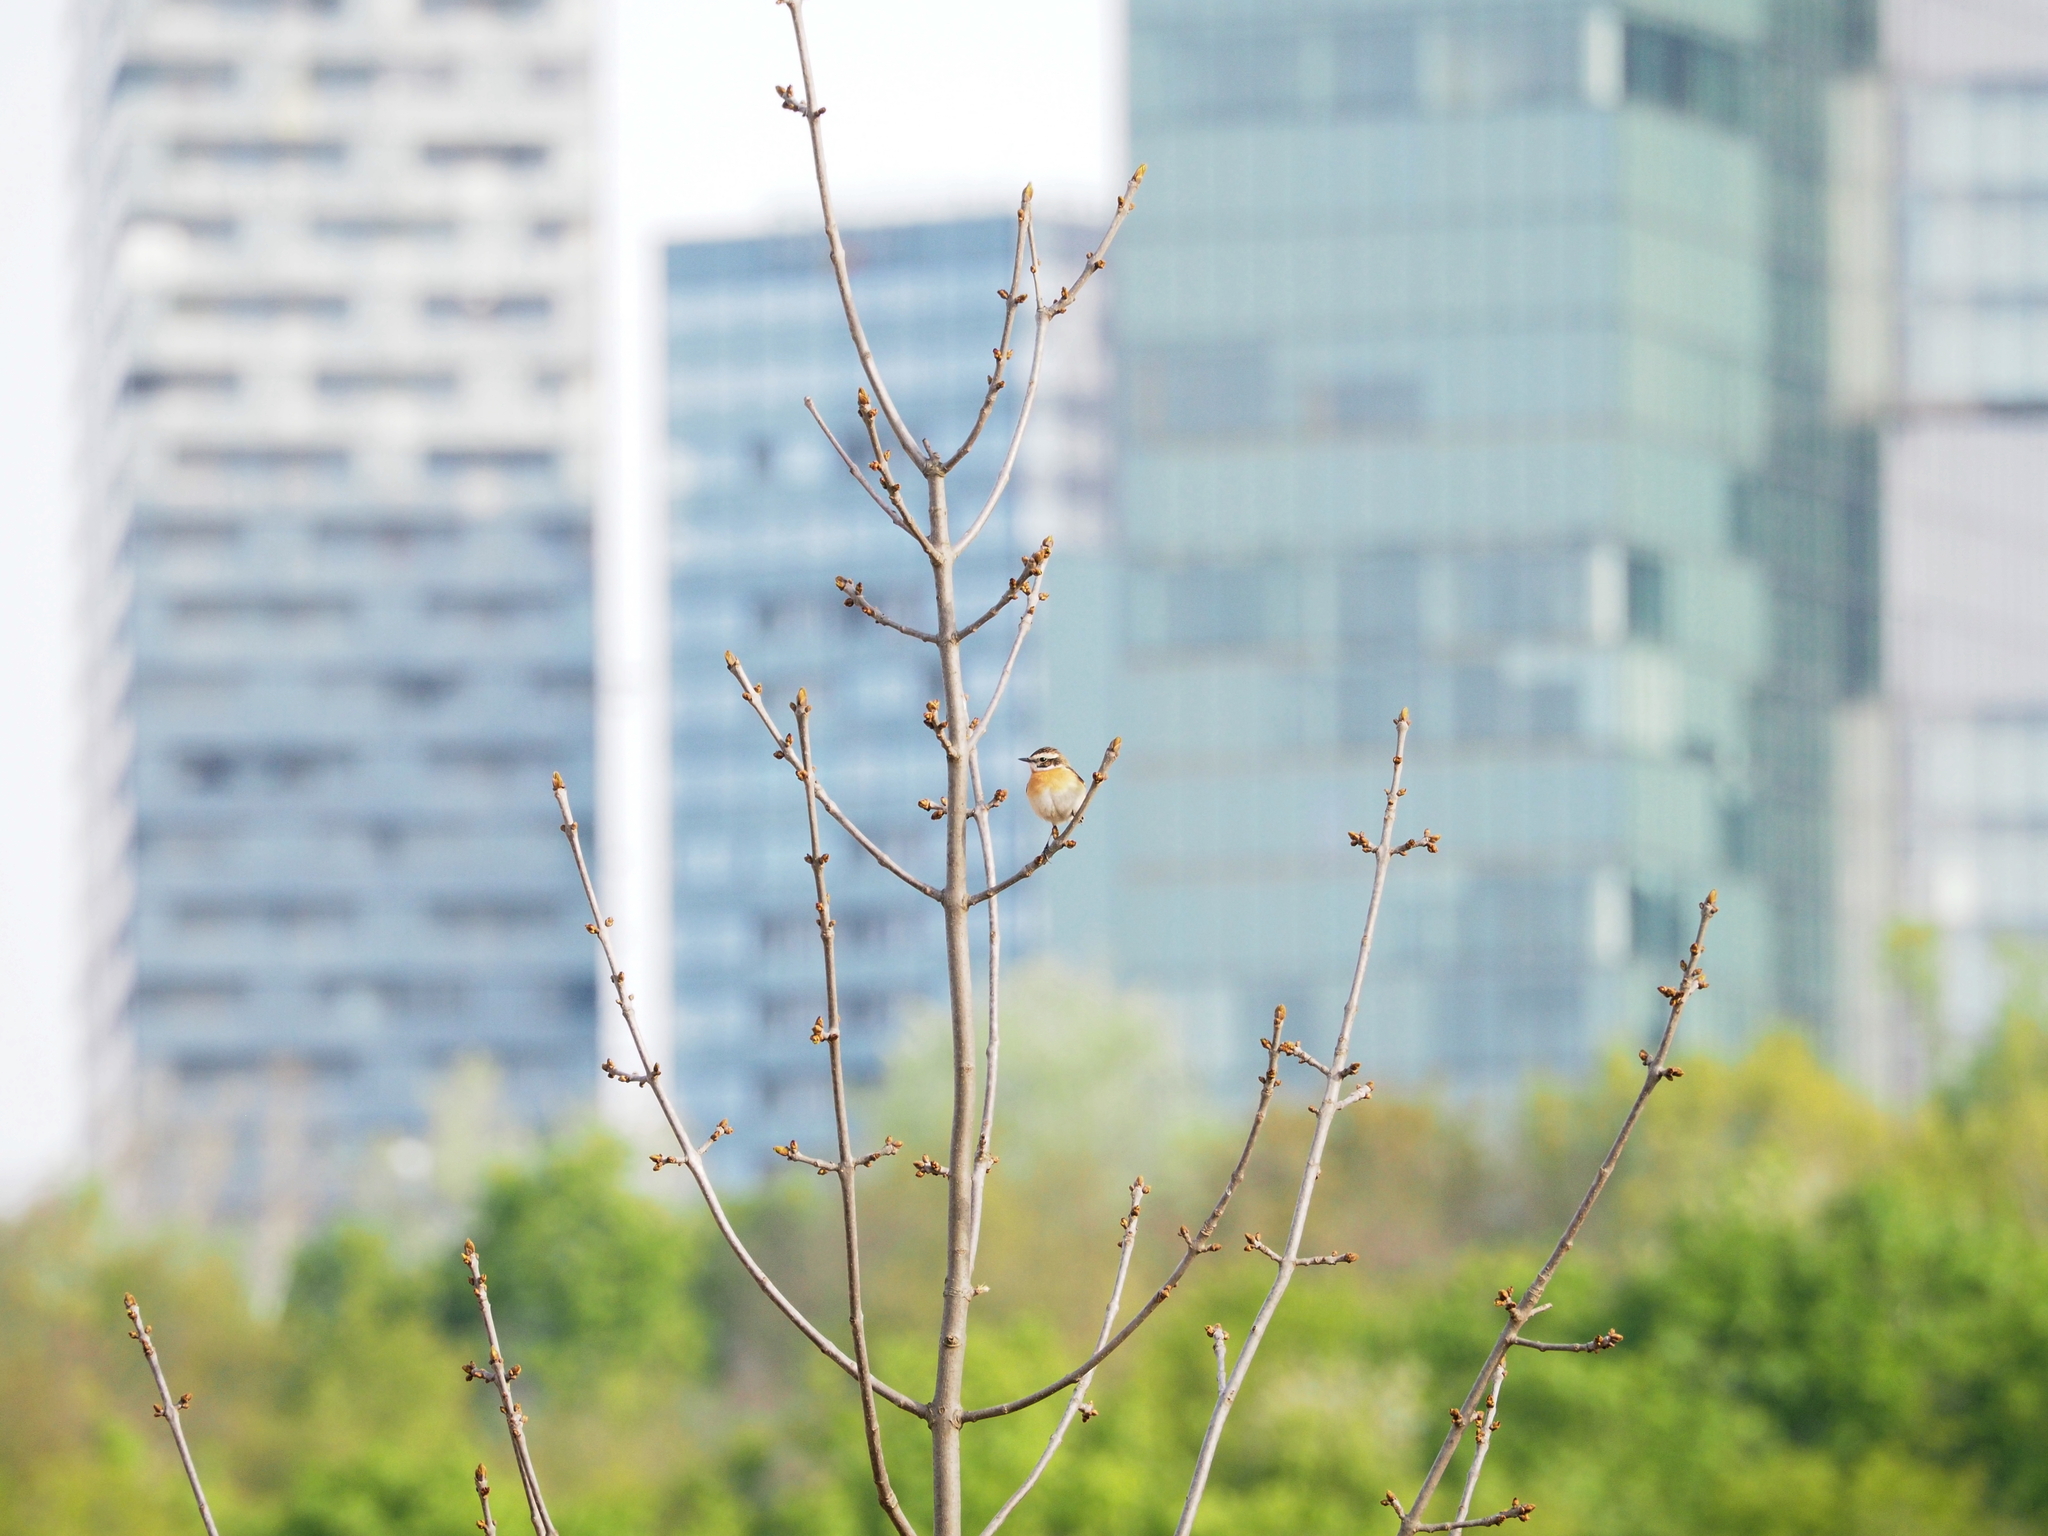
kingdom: Animalia
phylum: Chordata
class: Aves
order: Passeriformes
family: Muscicapidae
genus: Saxicola
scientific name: Saxicola rubetra
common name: Whinchat
